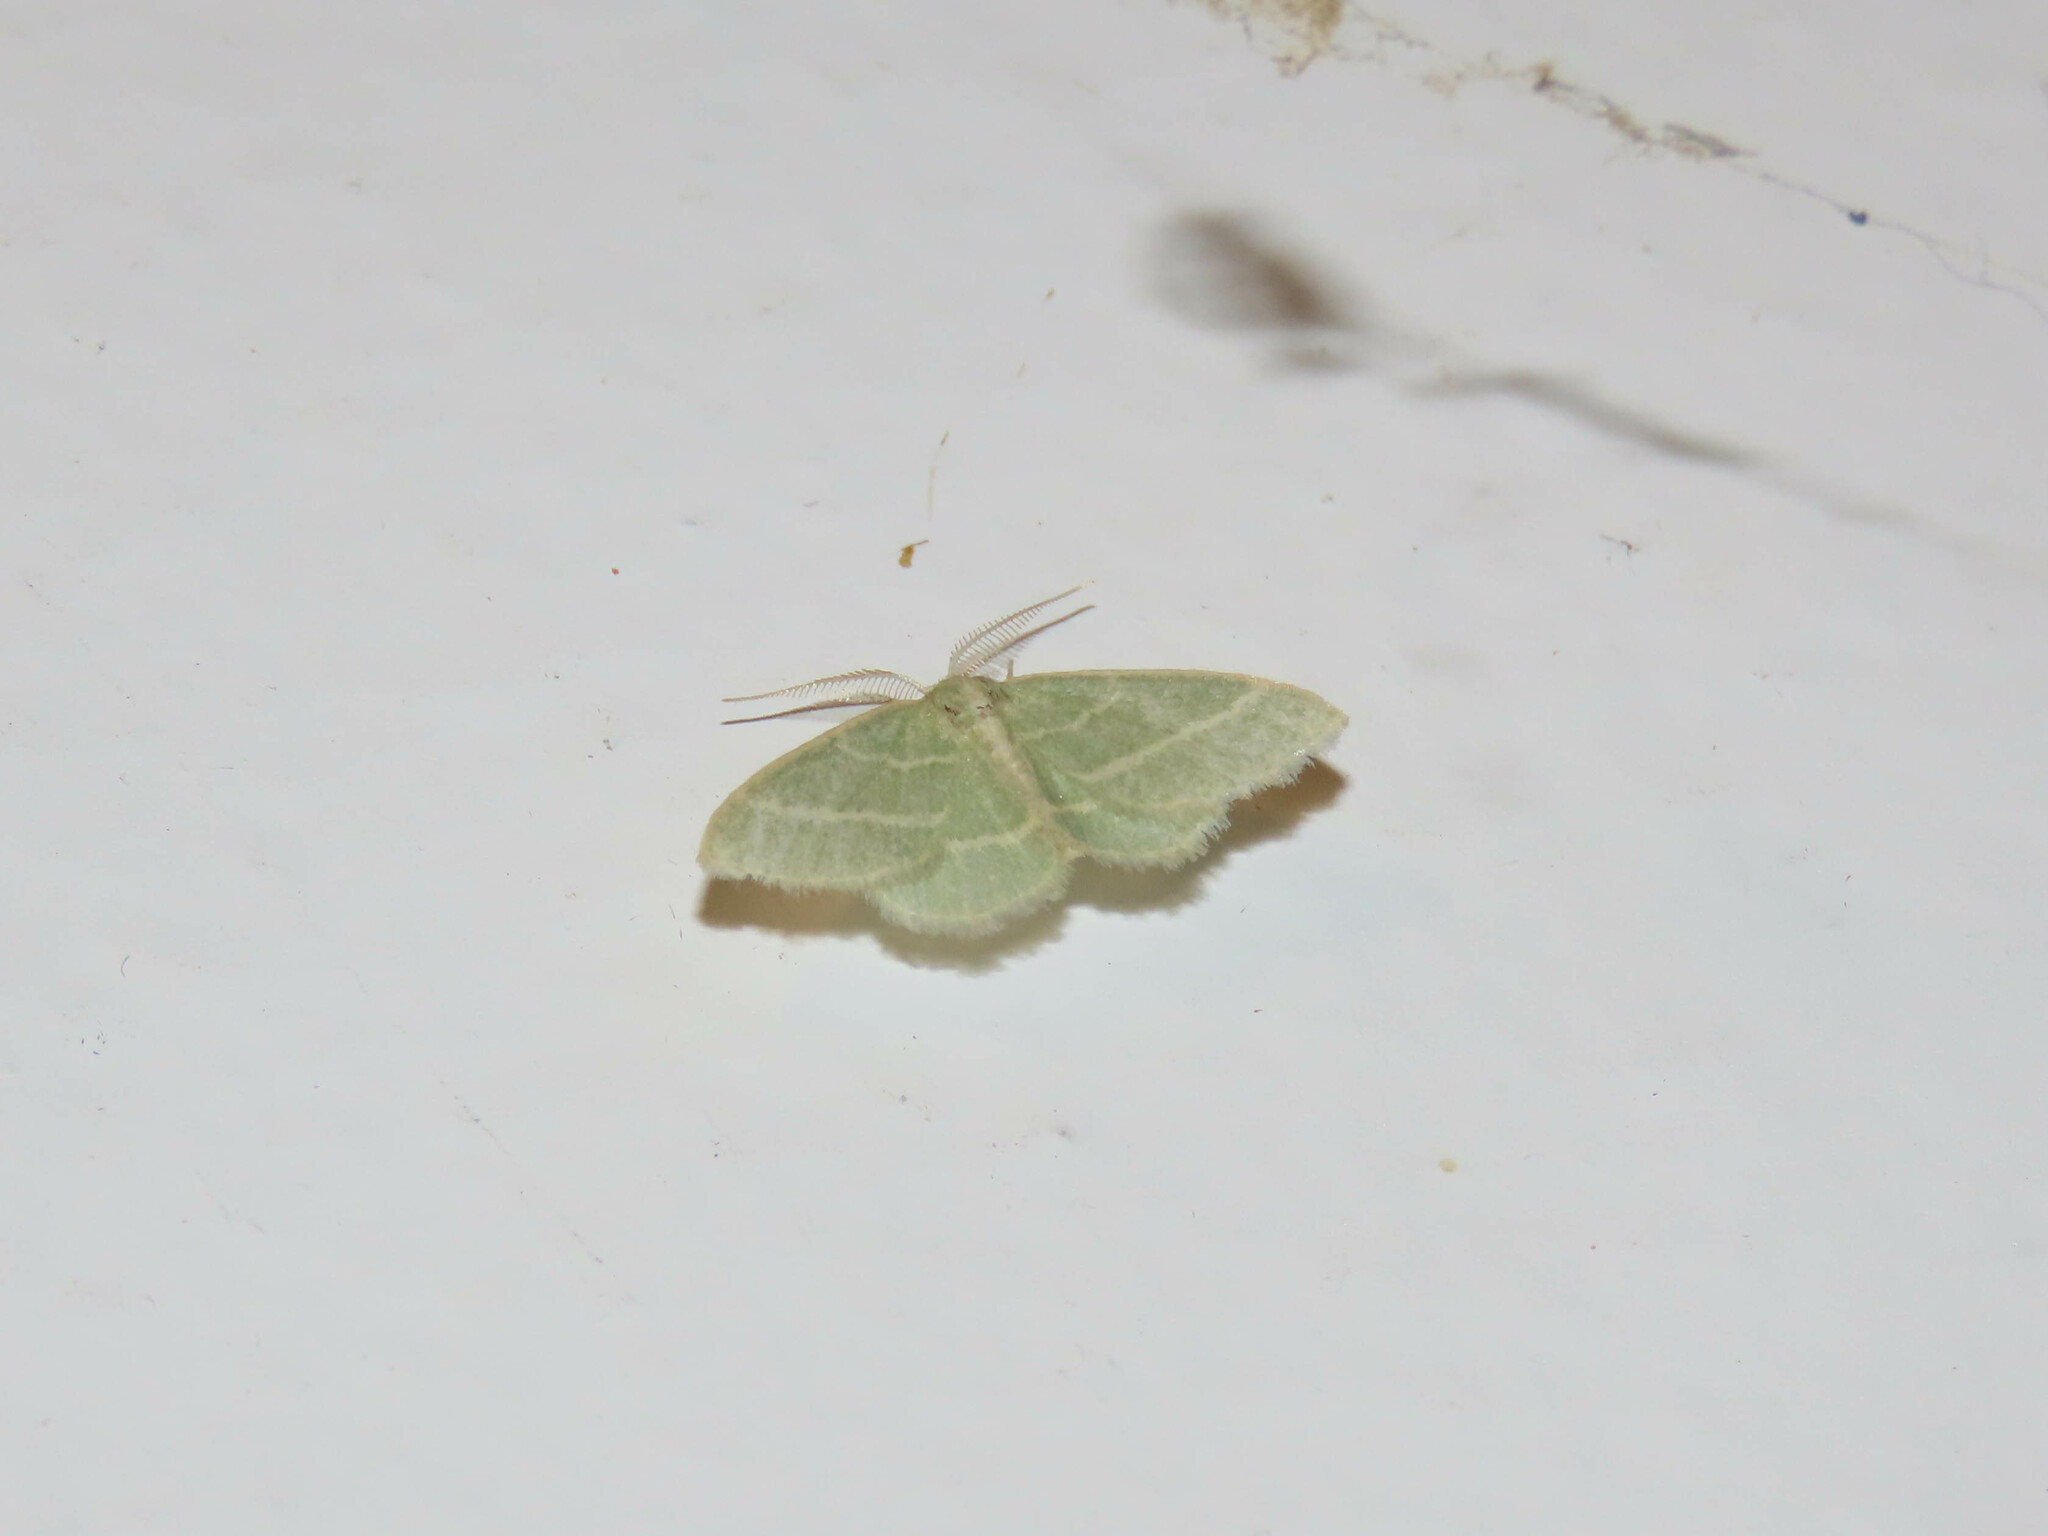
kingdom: Animalia
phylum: Arthropoda
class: Insecta
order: Lepidoptera
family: Geometridae
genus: Chlorochlamys
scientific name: Chlorochlamys chloroleucaria
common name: Blackberry looper
